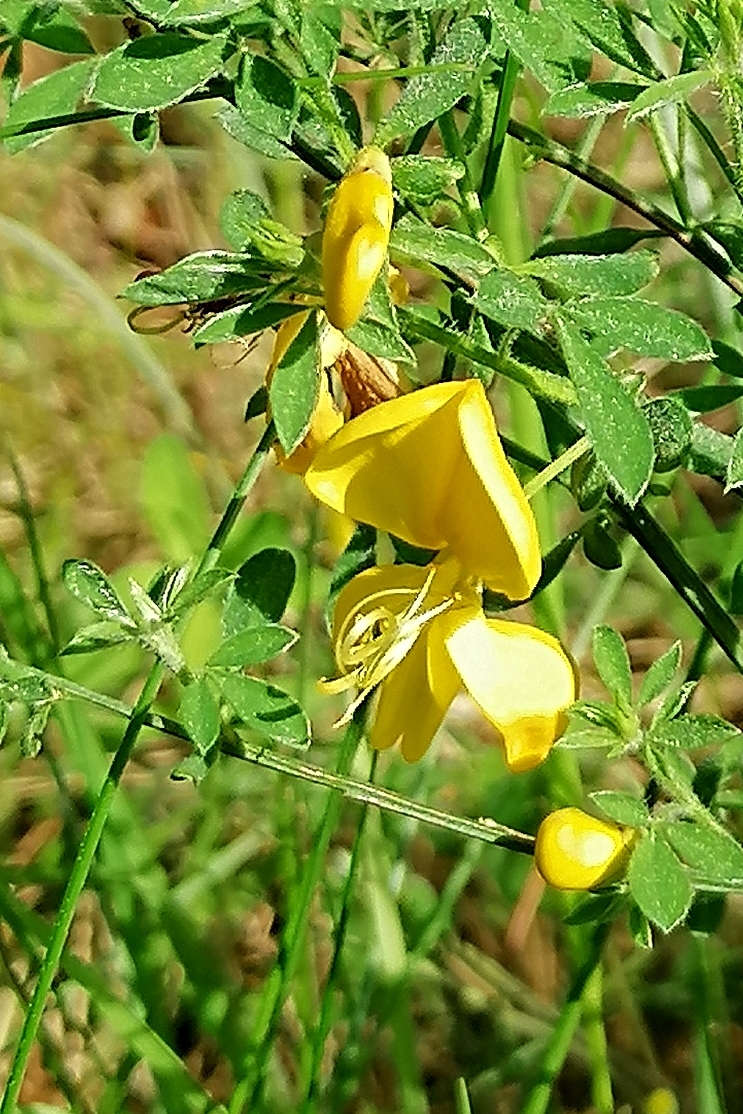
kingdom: Plantae
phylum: Tracheophyta
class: Magnoliopsida
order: Fabales
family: Fabaceae
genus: Cytisus
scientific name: Cytisus scoparius
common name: Scotch broom
